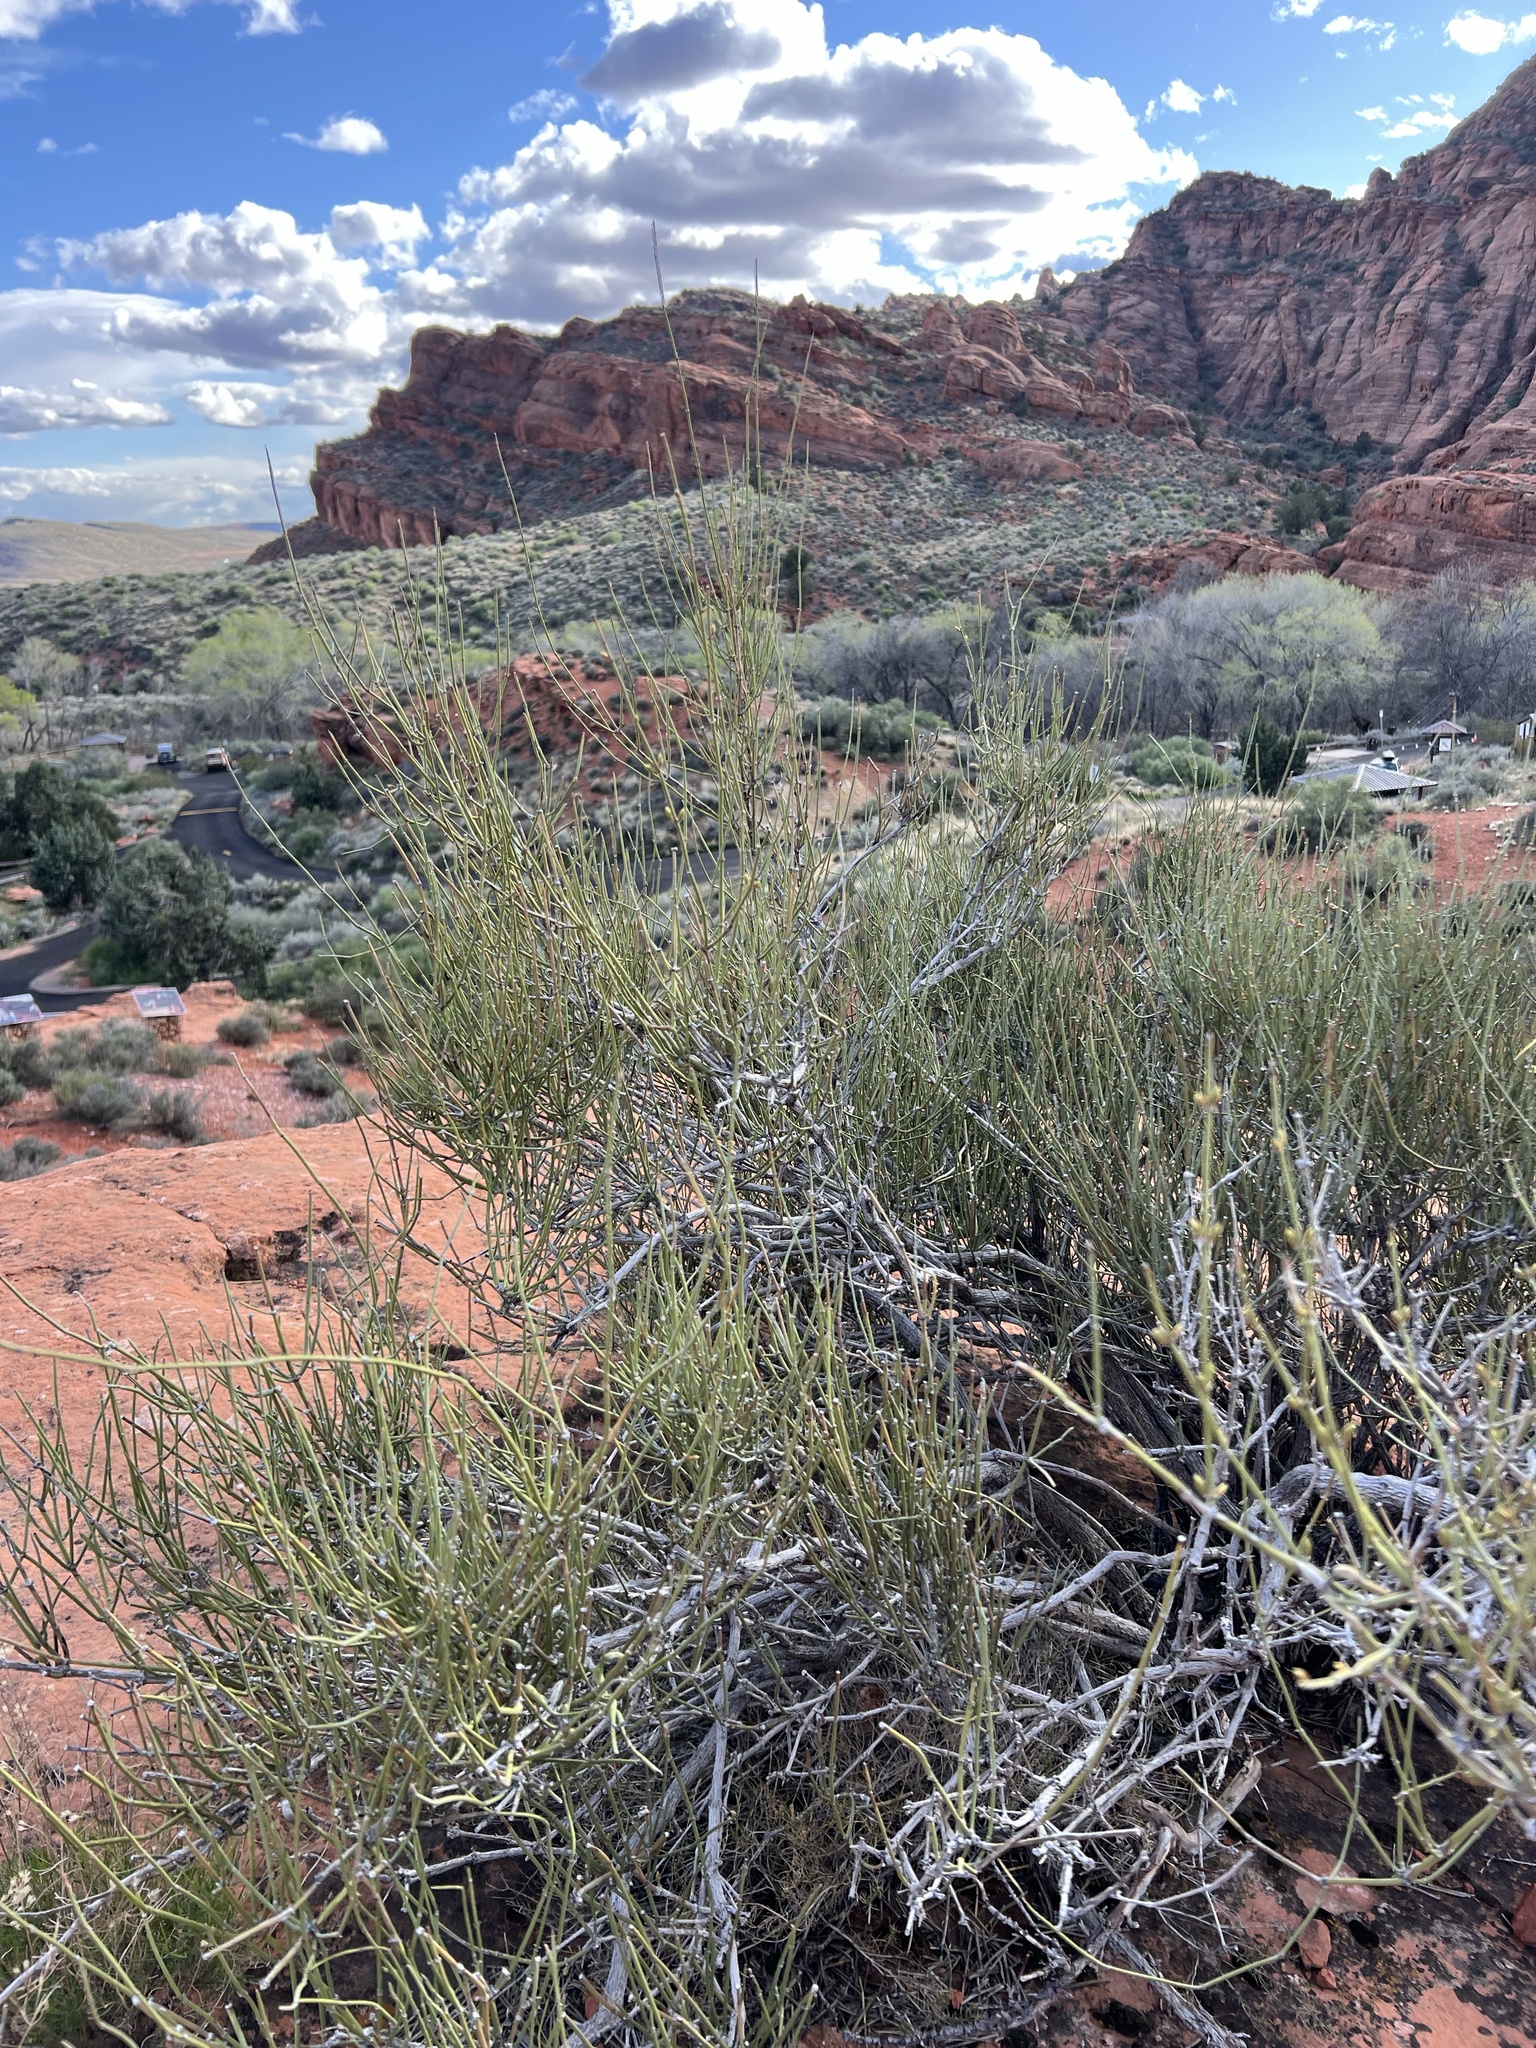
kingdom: Plantae
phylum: Tracheophyta
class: Gnetopsida
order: Ephedrales
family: Ephedraceae
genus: Ephedra
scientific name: Ephedra viridis
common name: Green ephedra
